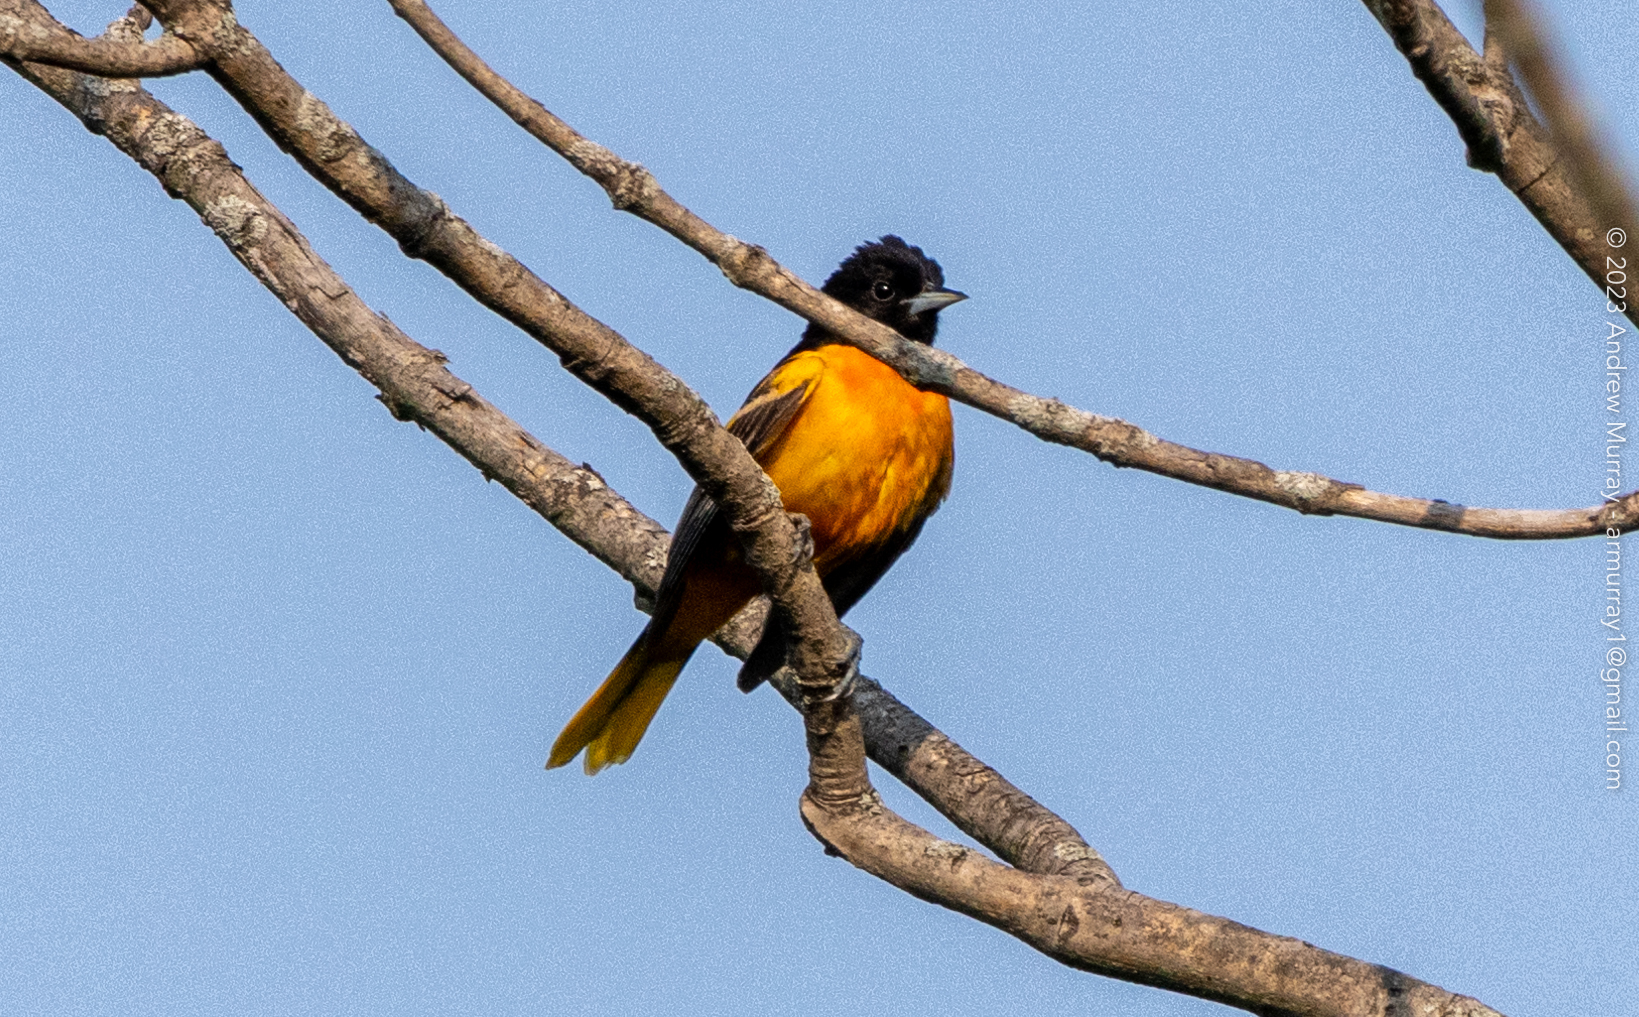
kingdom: Animalia
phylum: Chordata
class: Aves
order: Passeriformes
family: Icteridae
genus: Icterus
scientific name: Icterus galbula
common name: Baltimore oriole
